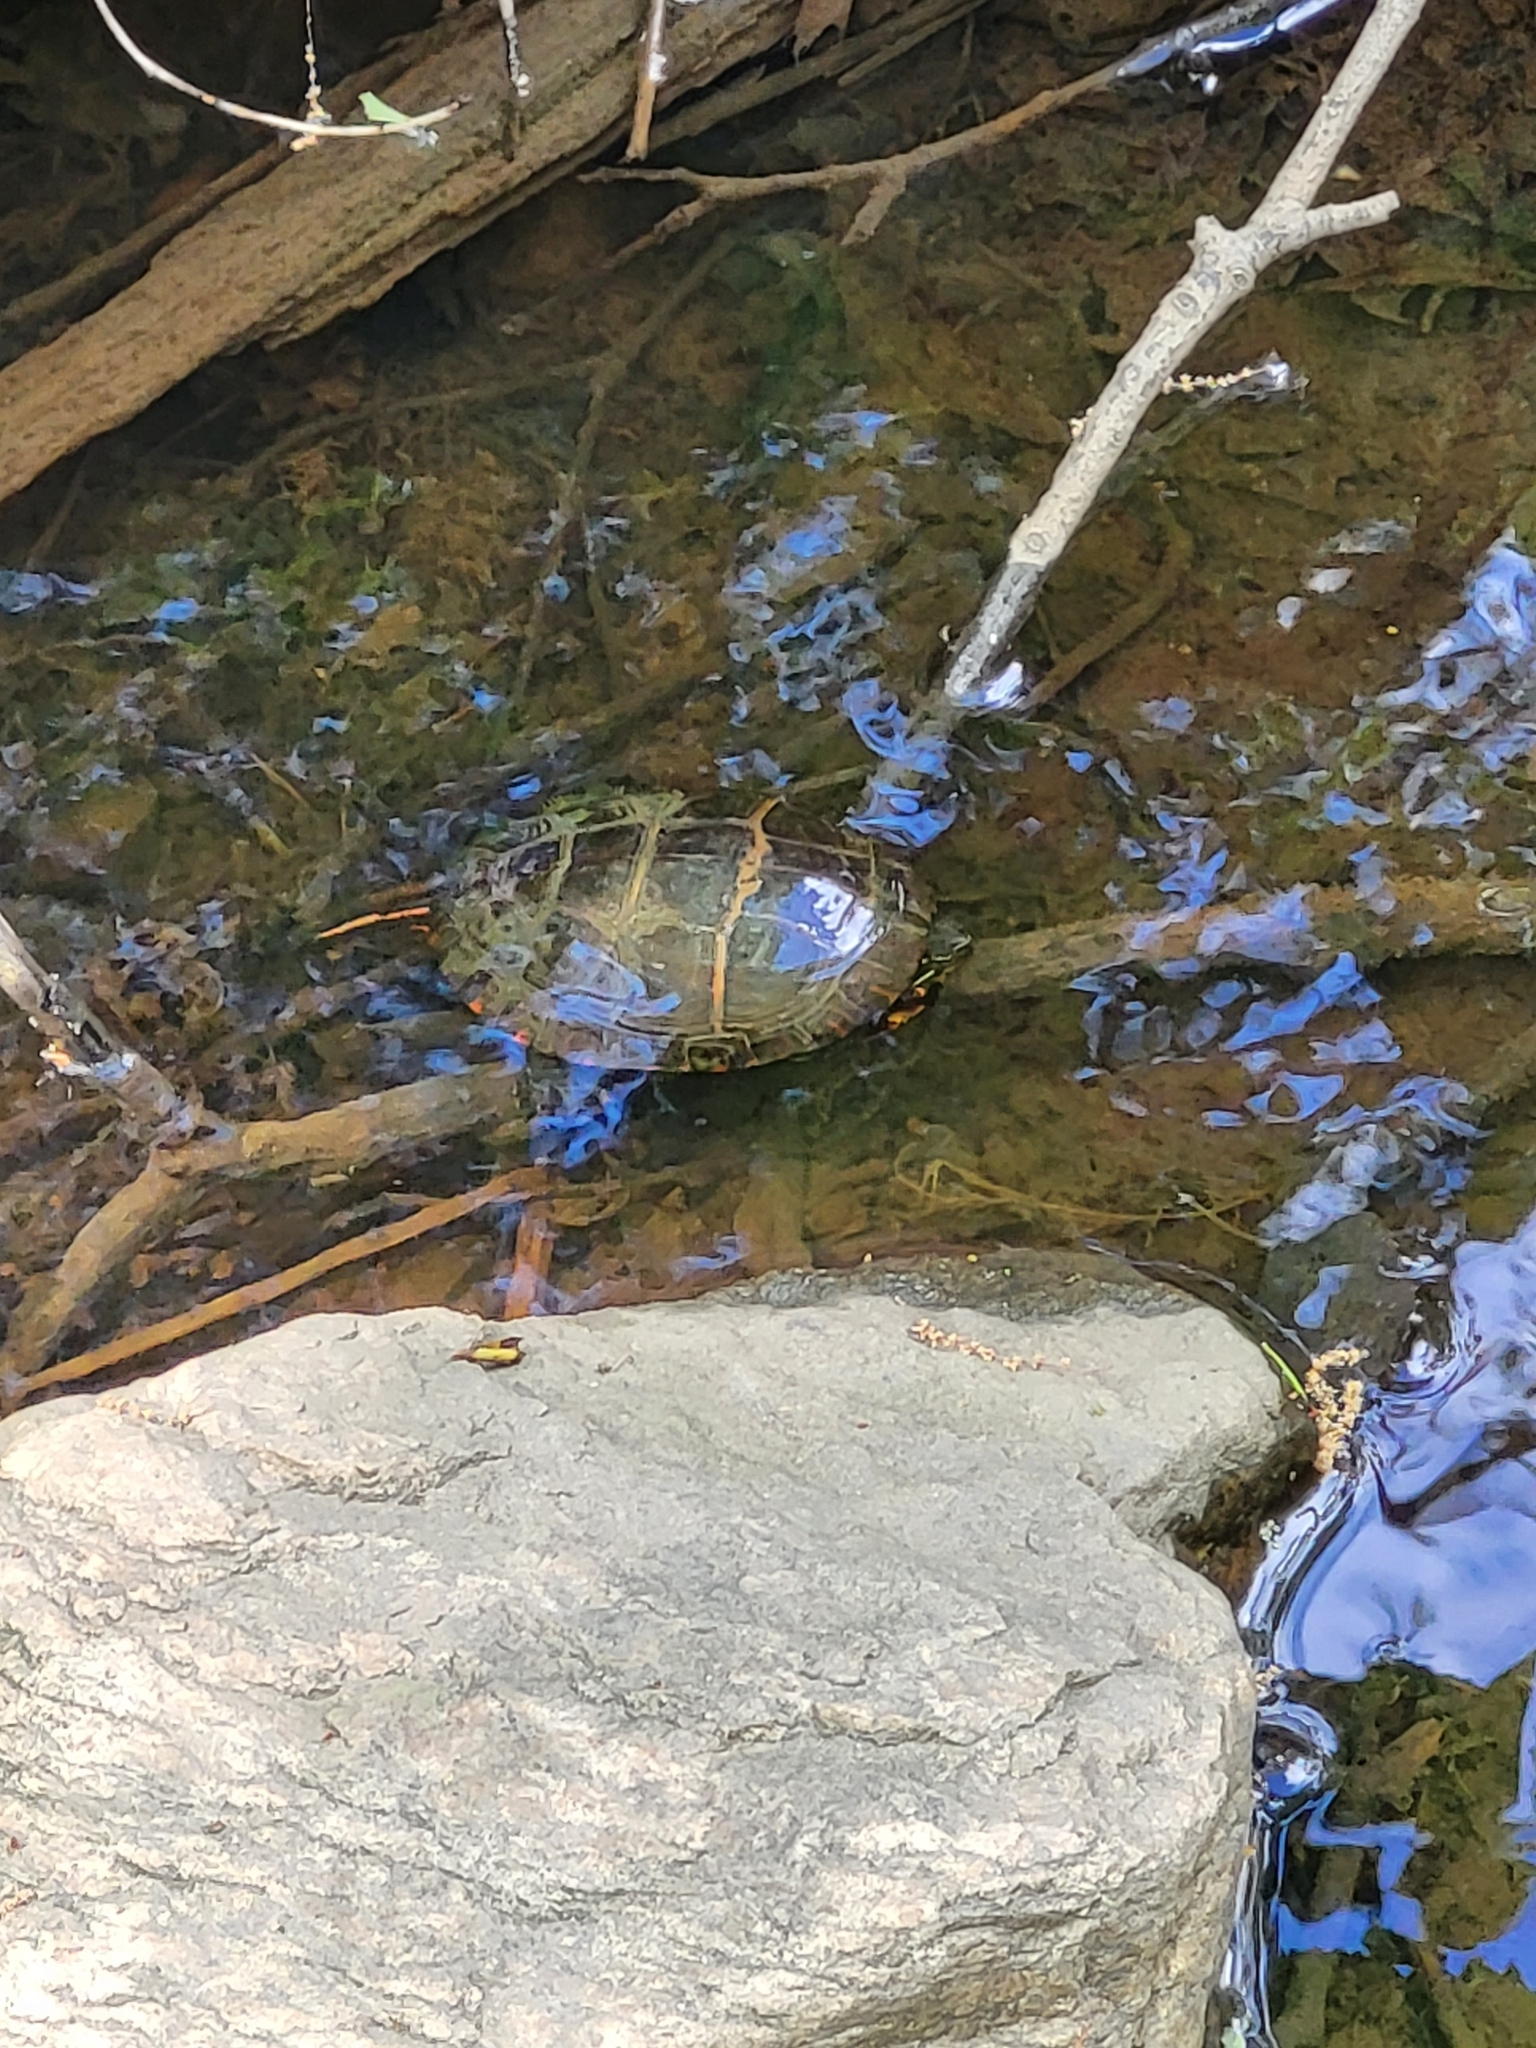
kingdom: Animalia
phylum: Chordata
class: Testudines
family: Emydidae
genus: Chrysemys
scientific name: Chrysemys picta
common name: Painted turtle
